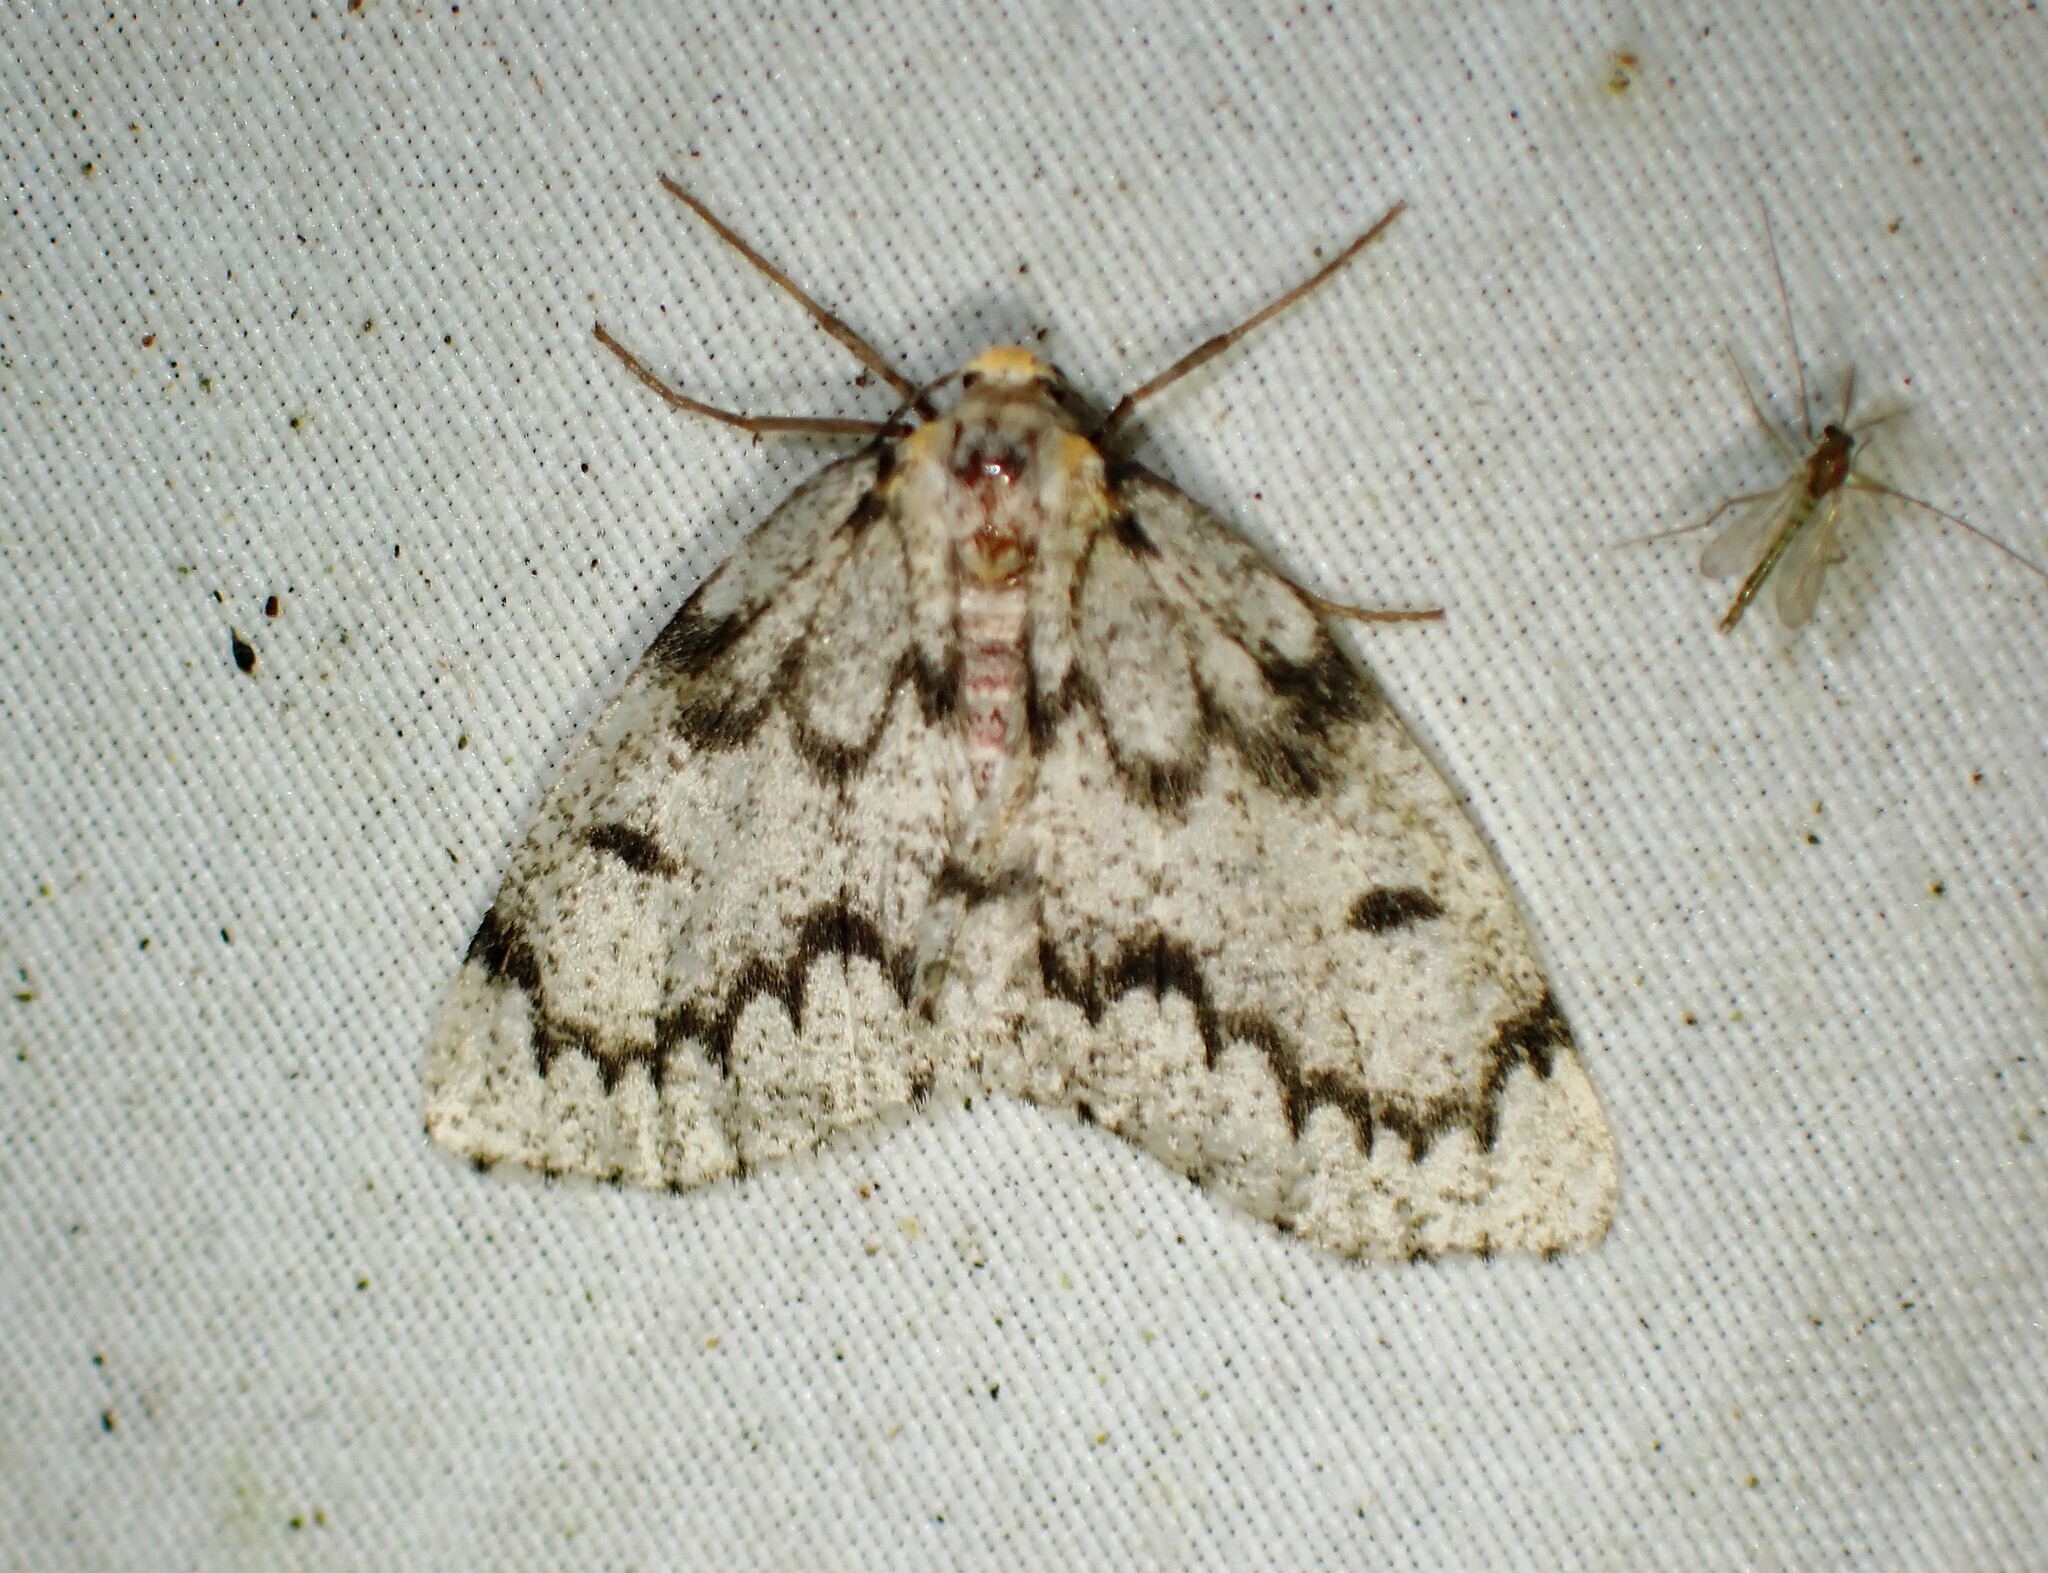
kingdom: Animalia
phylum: Arthropoda
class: Insecta
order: Lepidoptera
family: Geometridae
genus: Nepytia
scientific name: Nepytia canosaria
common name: False hemlock looper
